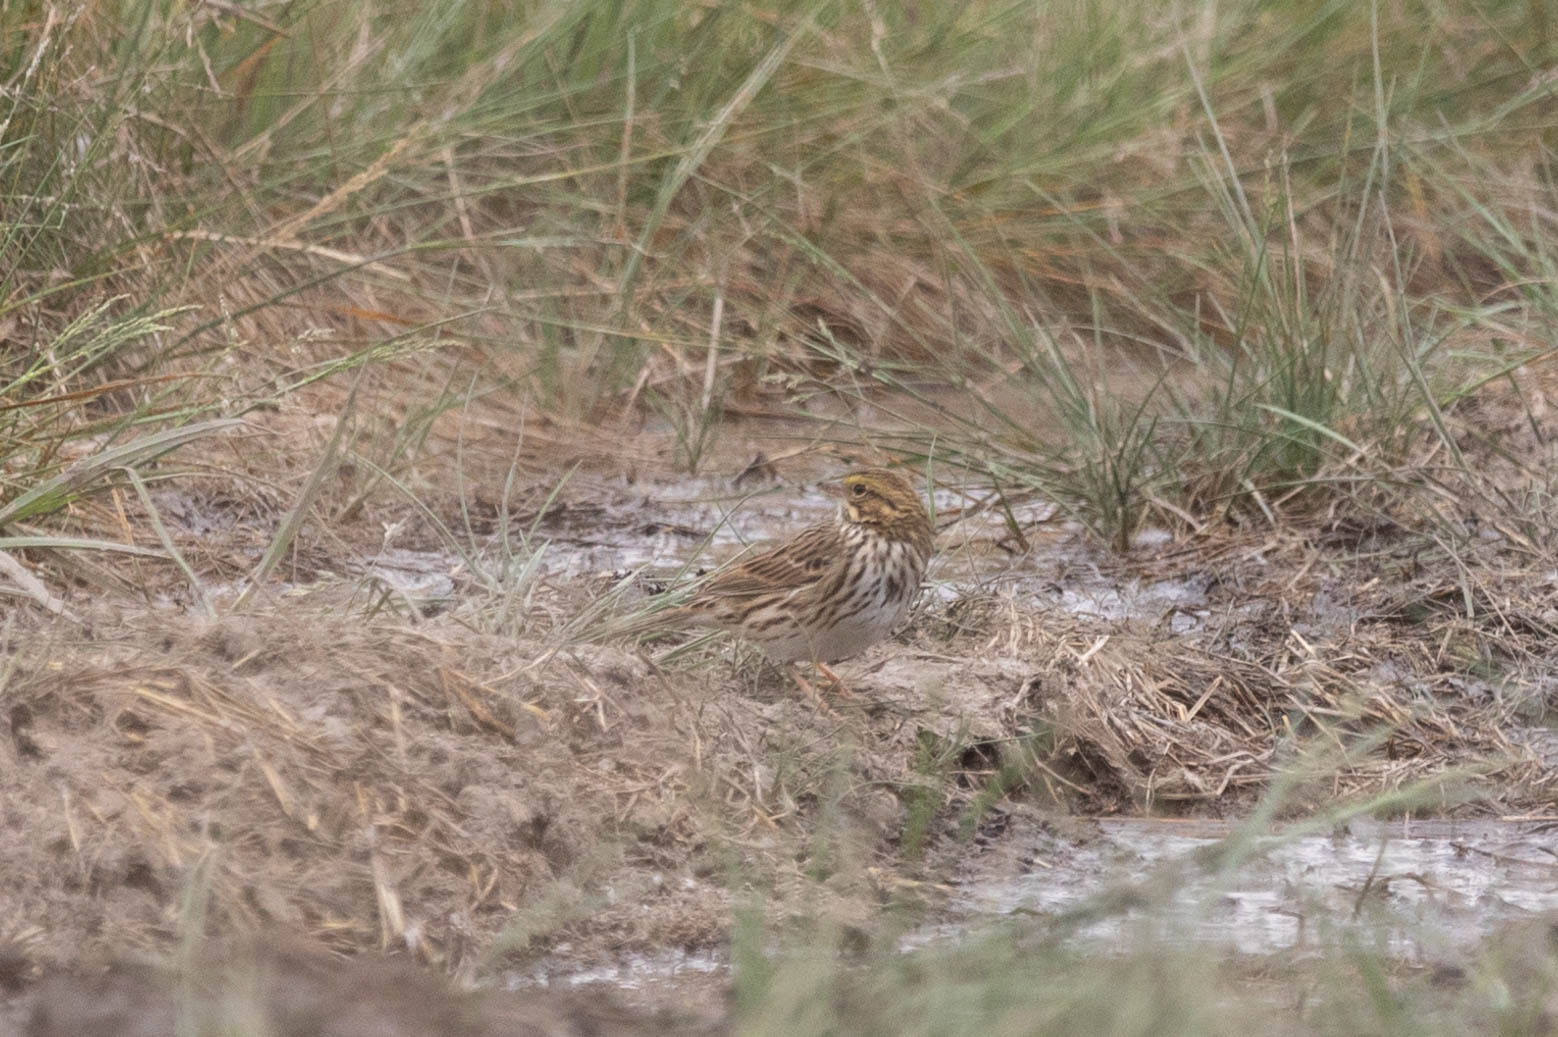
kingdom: Animalia
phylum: Chordata
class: Aves
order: Passeriformes
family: Passerellidae
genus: Passerculus
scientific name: Passerculus sandwichensis
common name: Savannah sparrow
